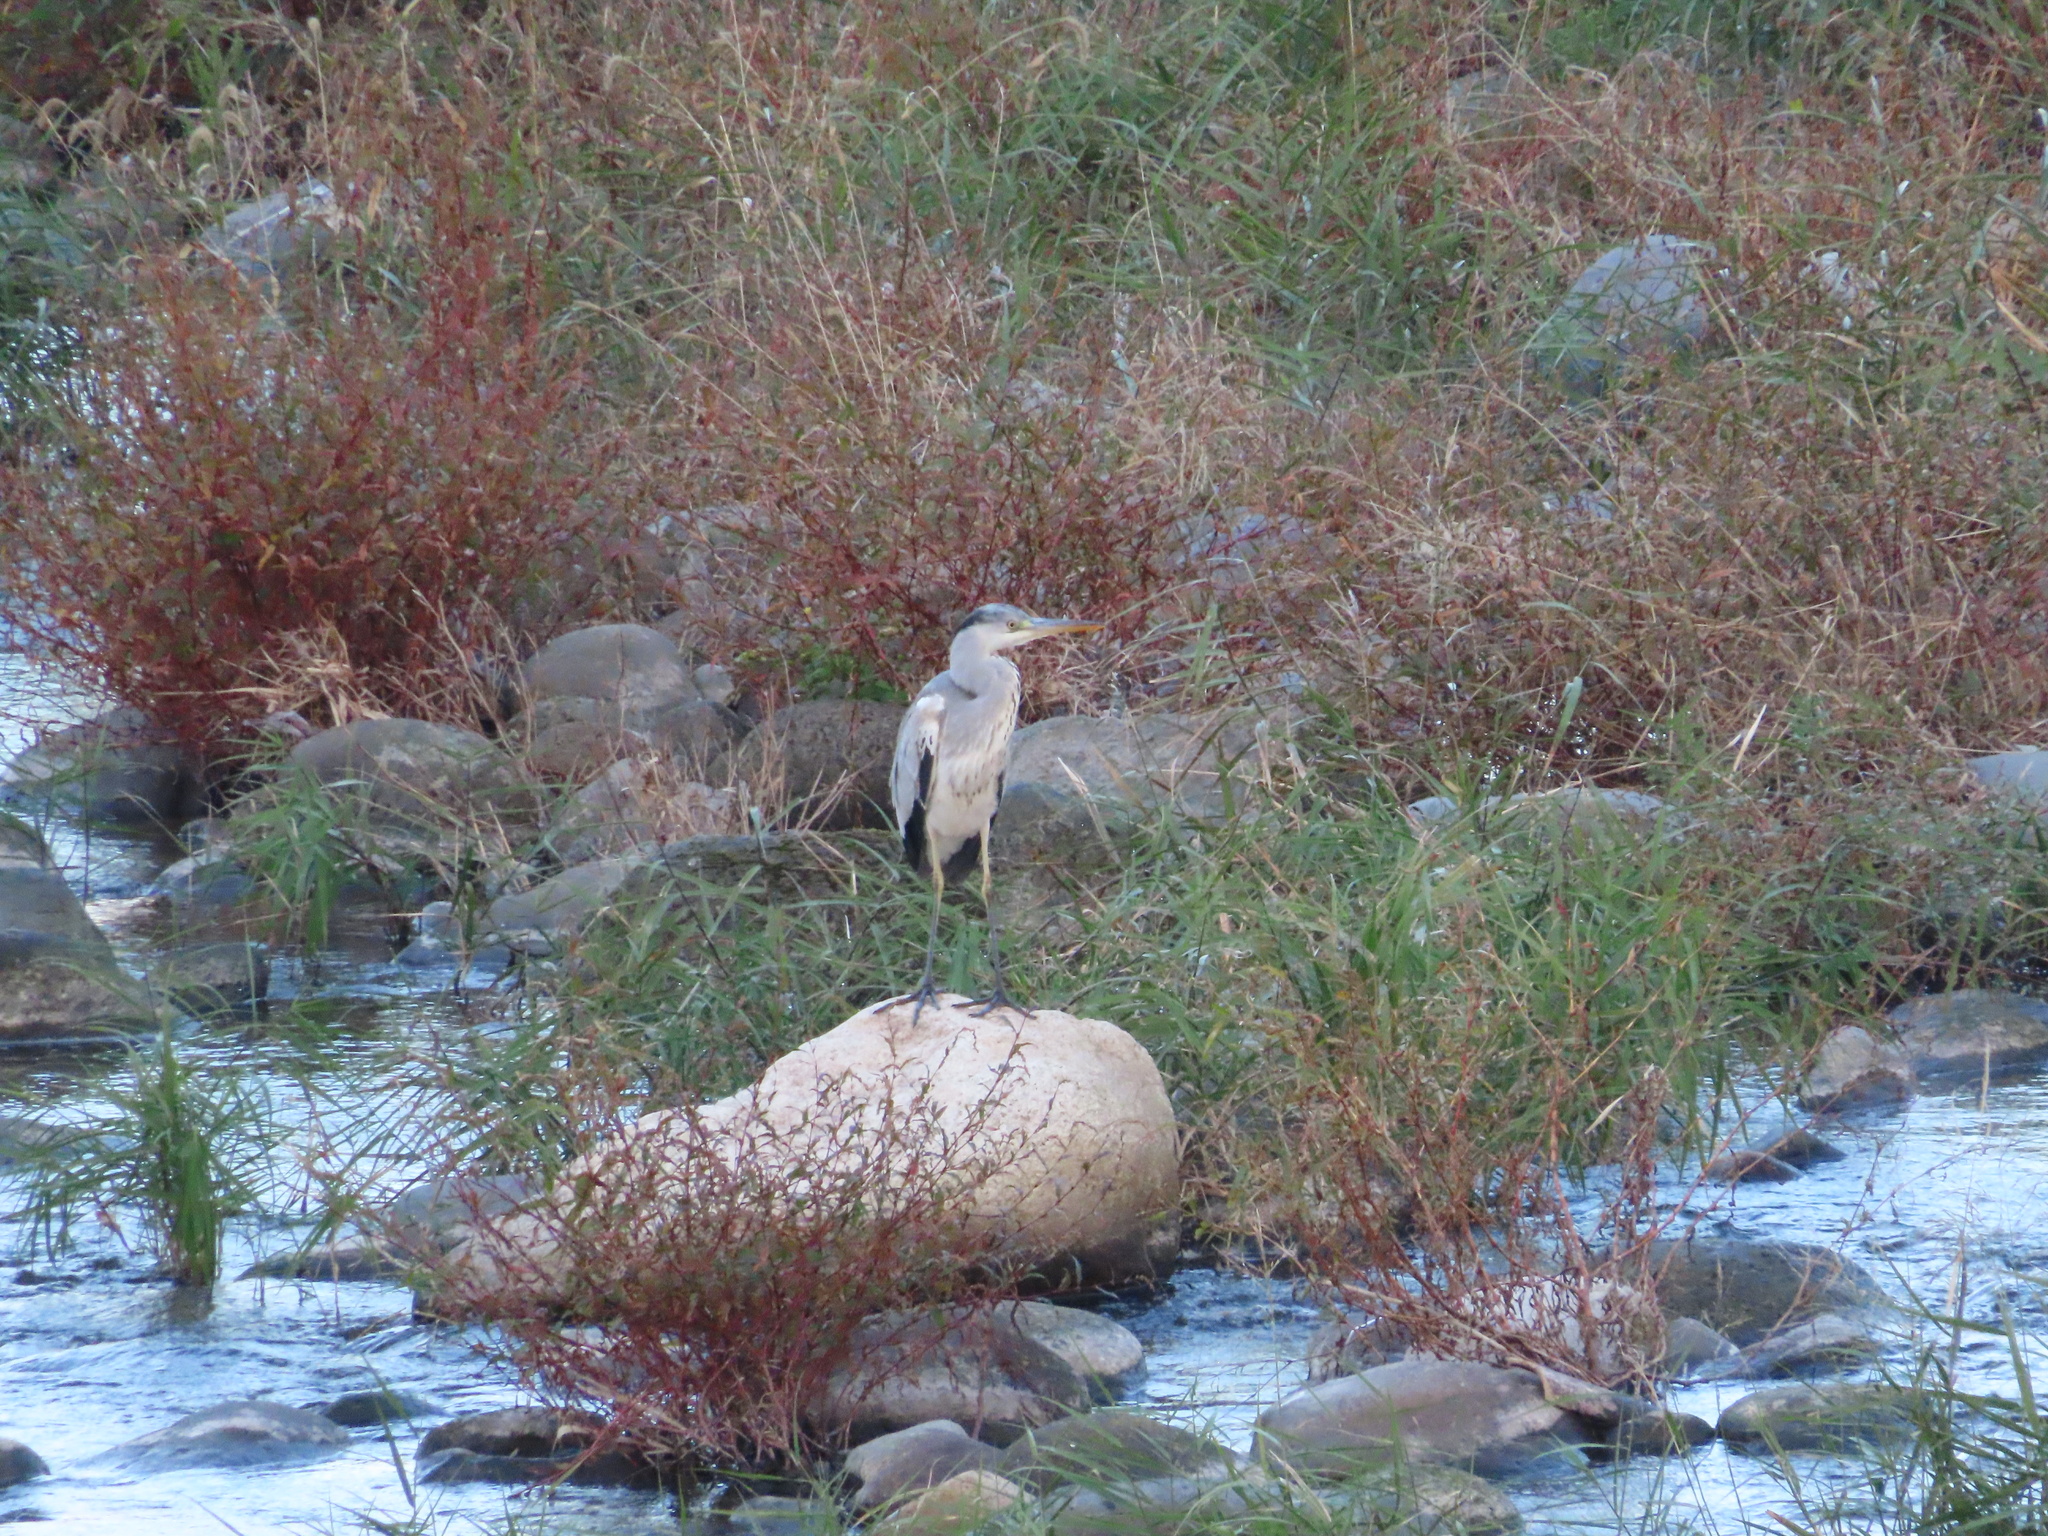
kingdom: Animalia
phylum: Chordata
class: Aves
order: Pelecaniformes
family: Ardeidae
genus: Ardea
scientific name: Ardea cinerea
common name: Grey heron
